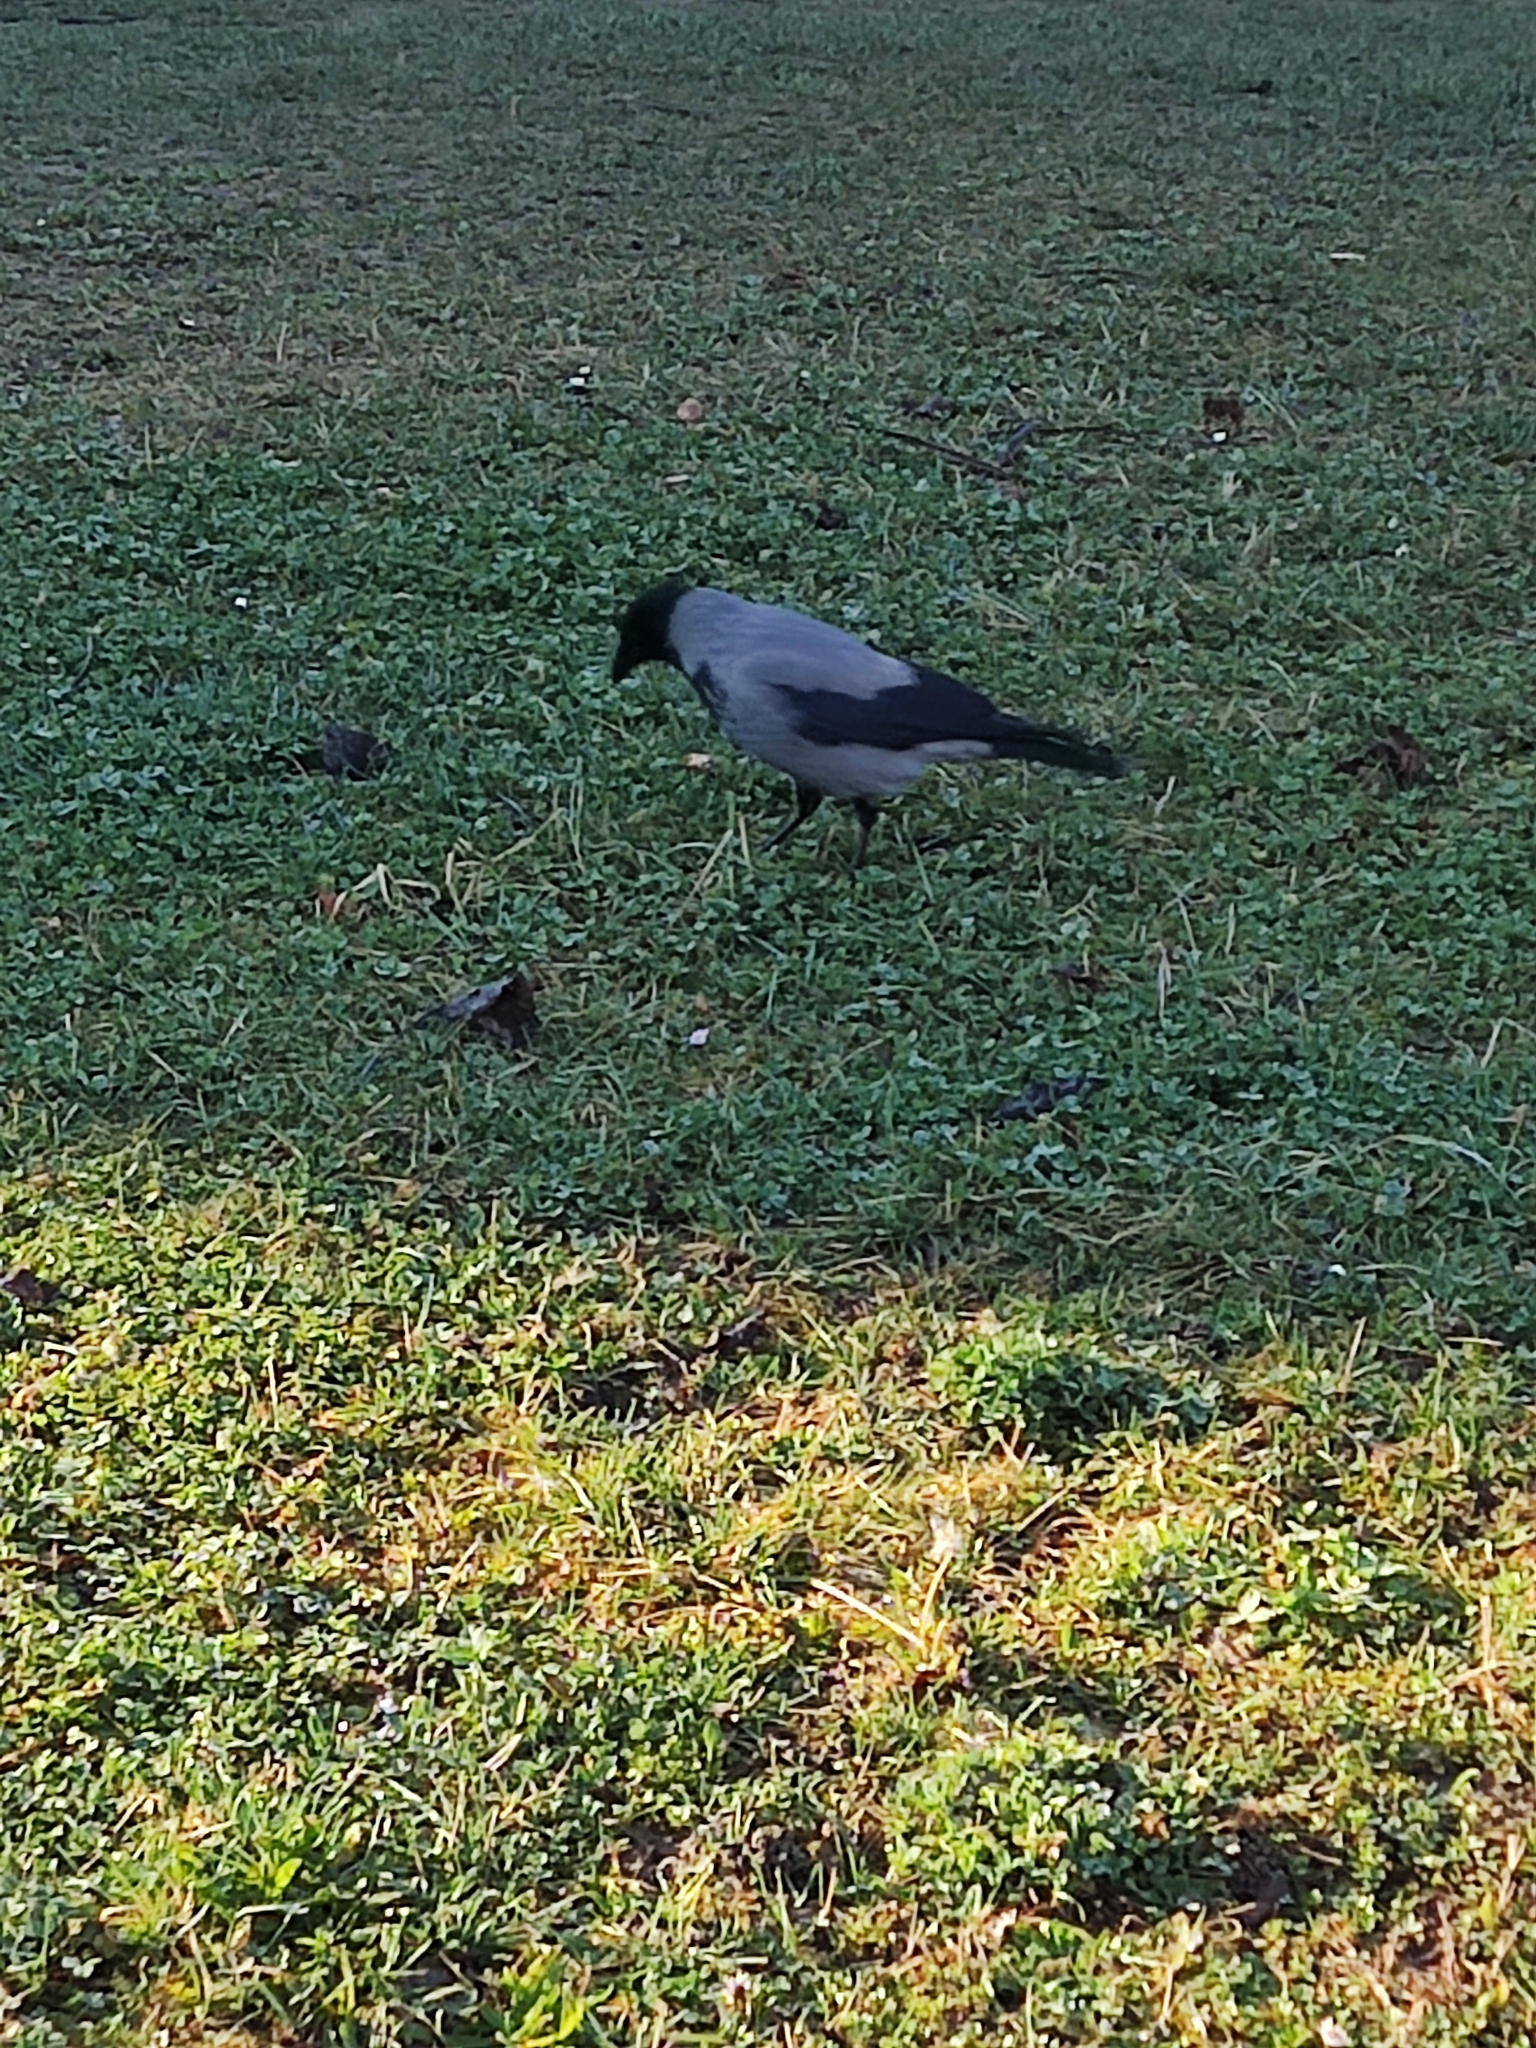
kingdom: Animalia
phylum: Chordata
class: Aves
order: Passeriformes
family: Corvidae
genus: Corvus
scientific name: Corvus cornix
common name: Hooded crow
